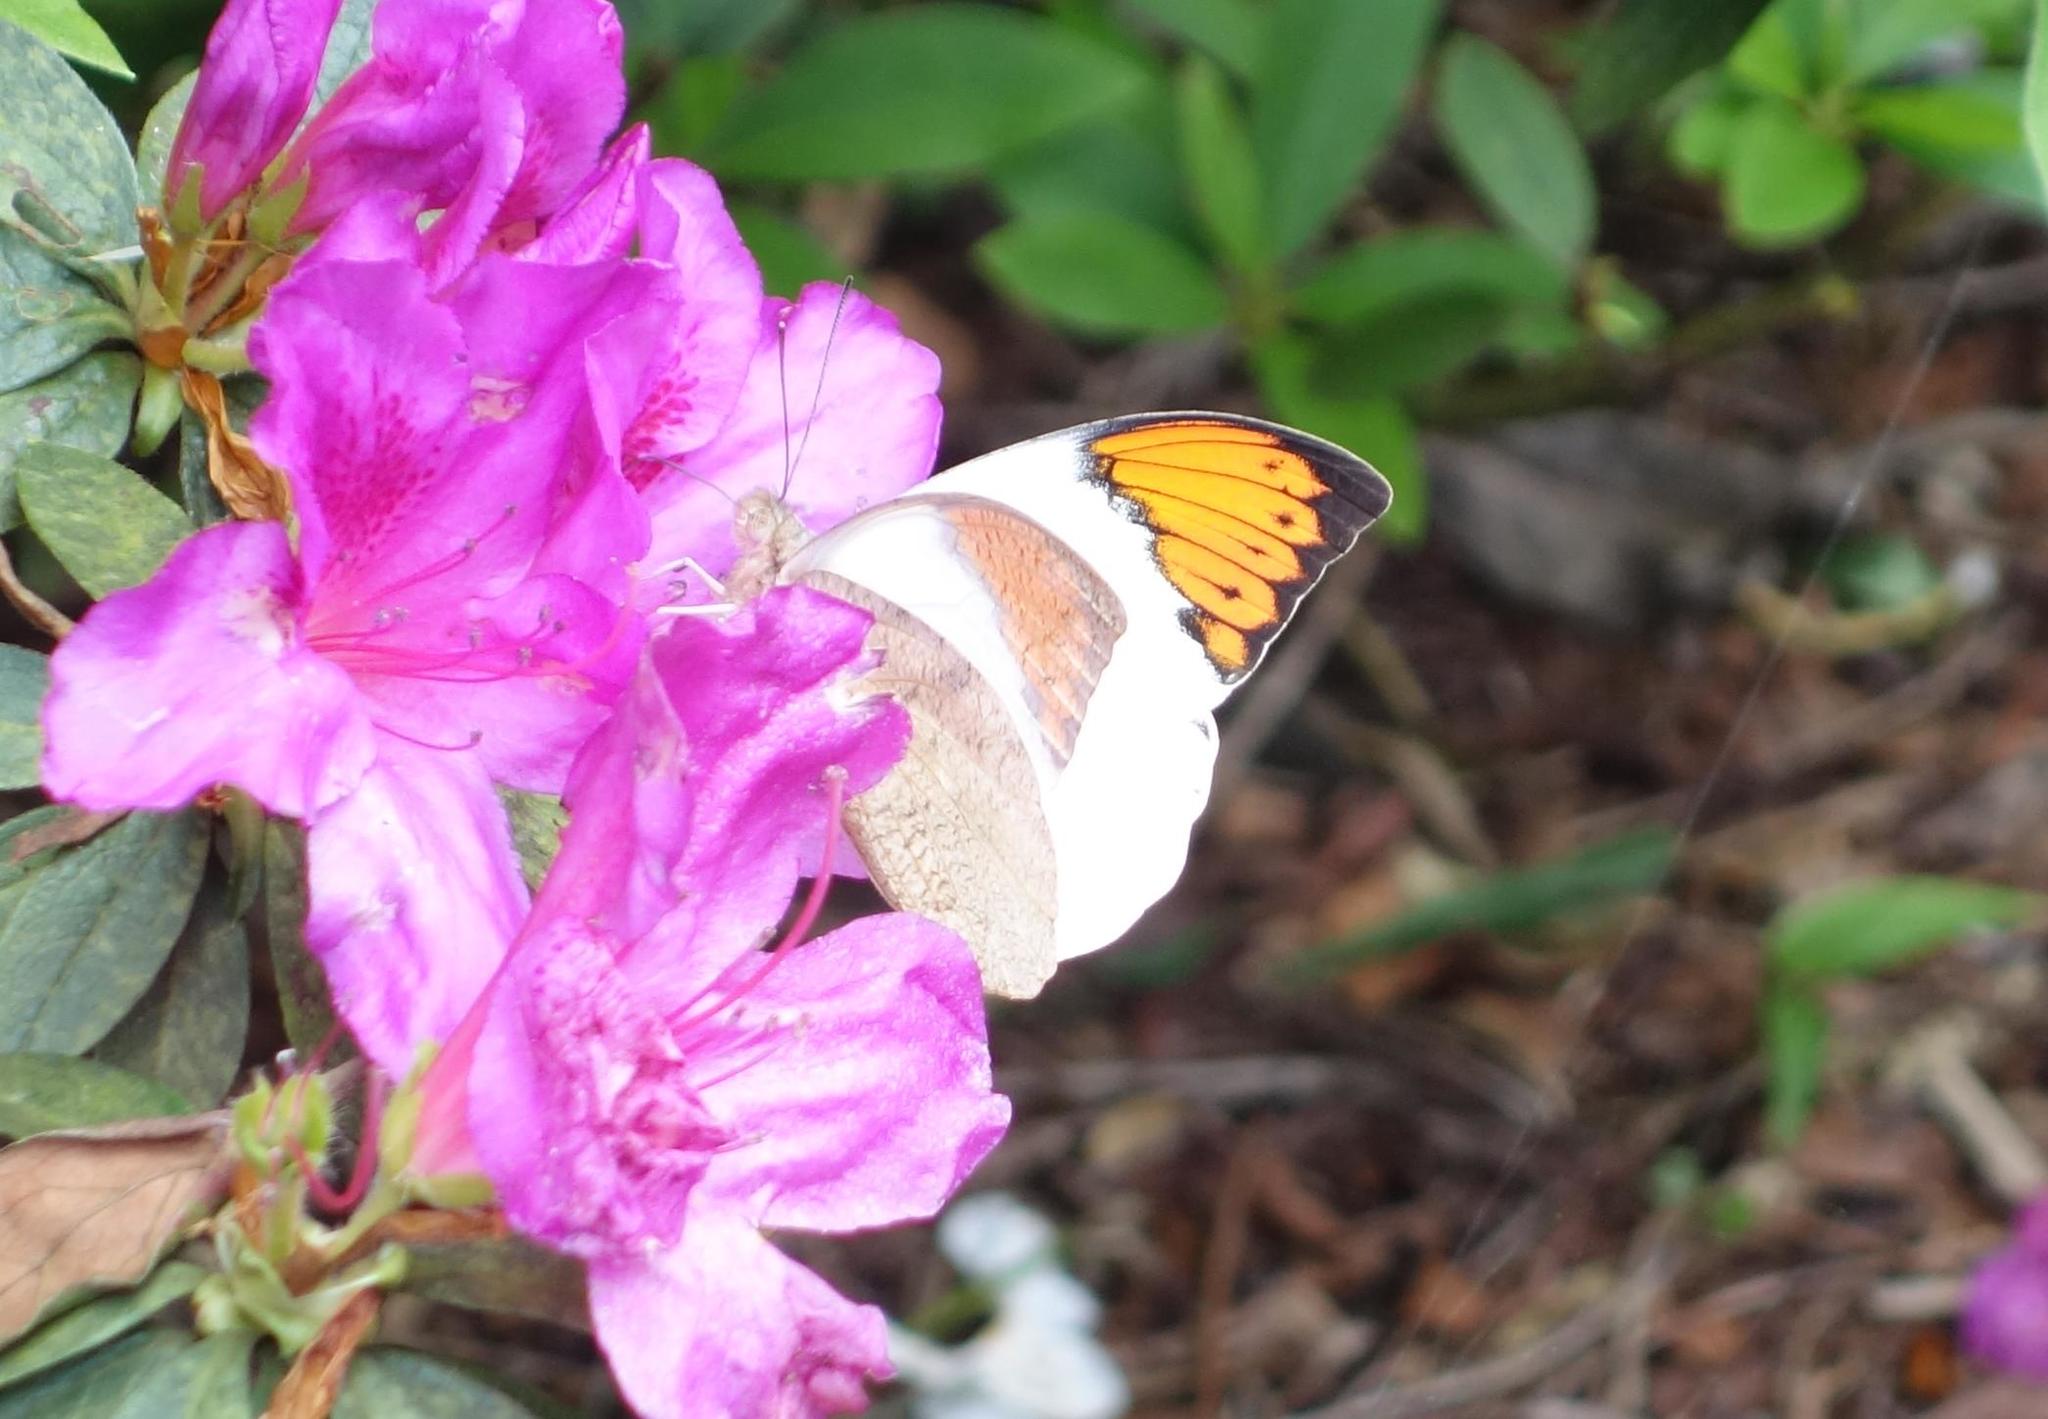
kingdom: Animalia
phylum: Arthropoda
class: Insecta
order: Lepidoptera
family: Pieridae
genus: Hebomoia
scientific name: Hebomoia glaucippe
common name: Great orange tip
